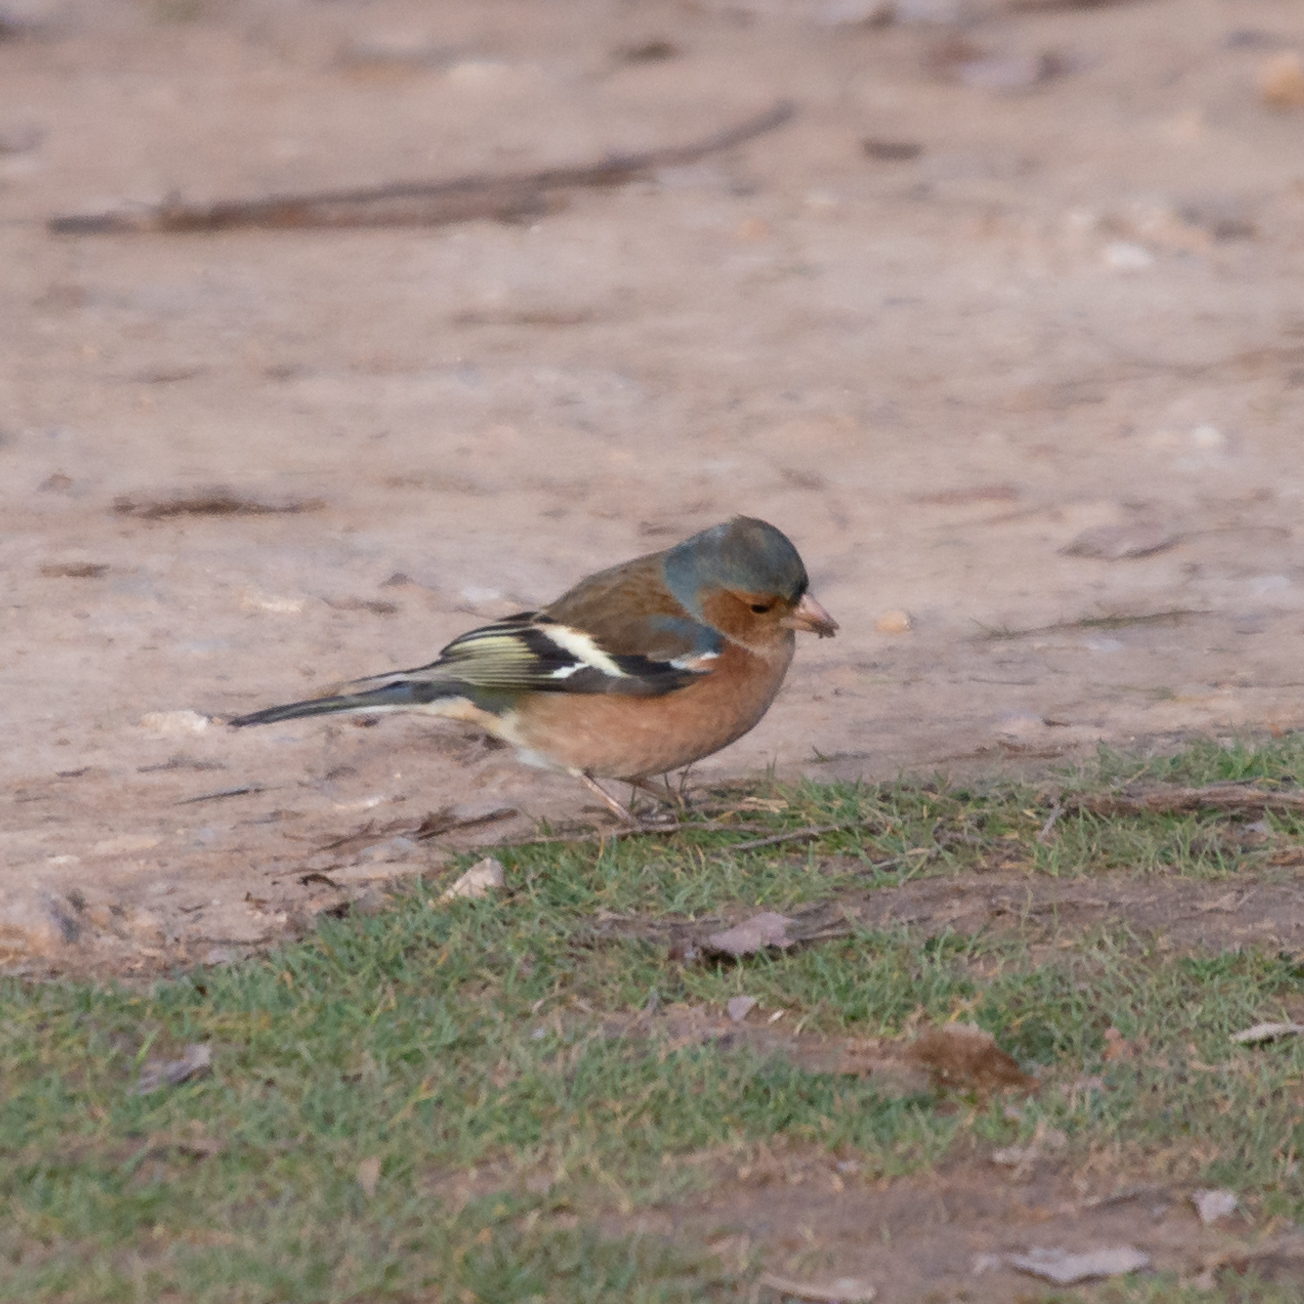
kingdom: Animalia
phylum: Chordata
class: Aves
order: Passeriformes
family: Fringillidae
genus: Fringilla
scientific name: Fringilla coelebs
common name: Common chaffinch
